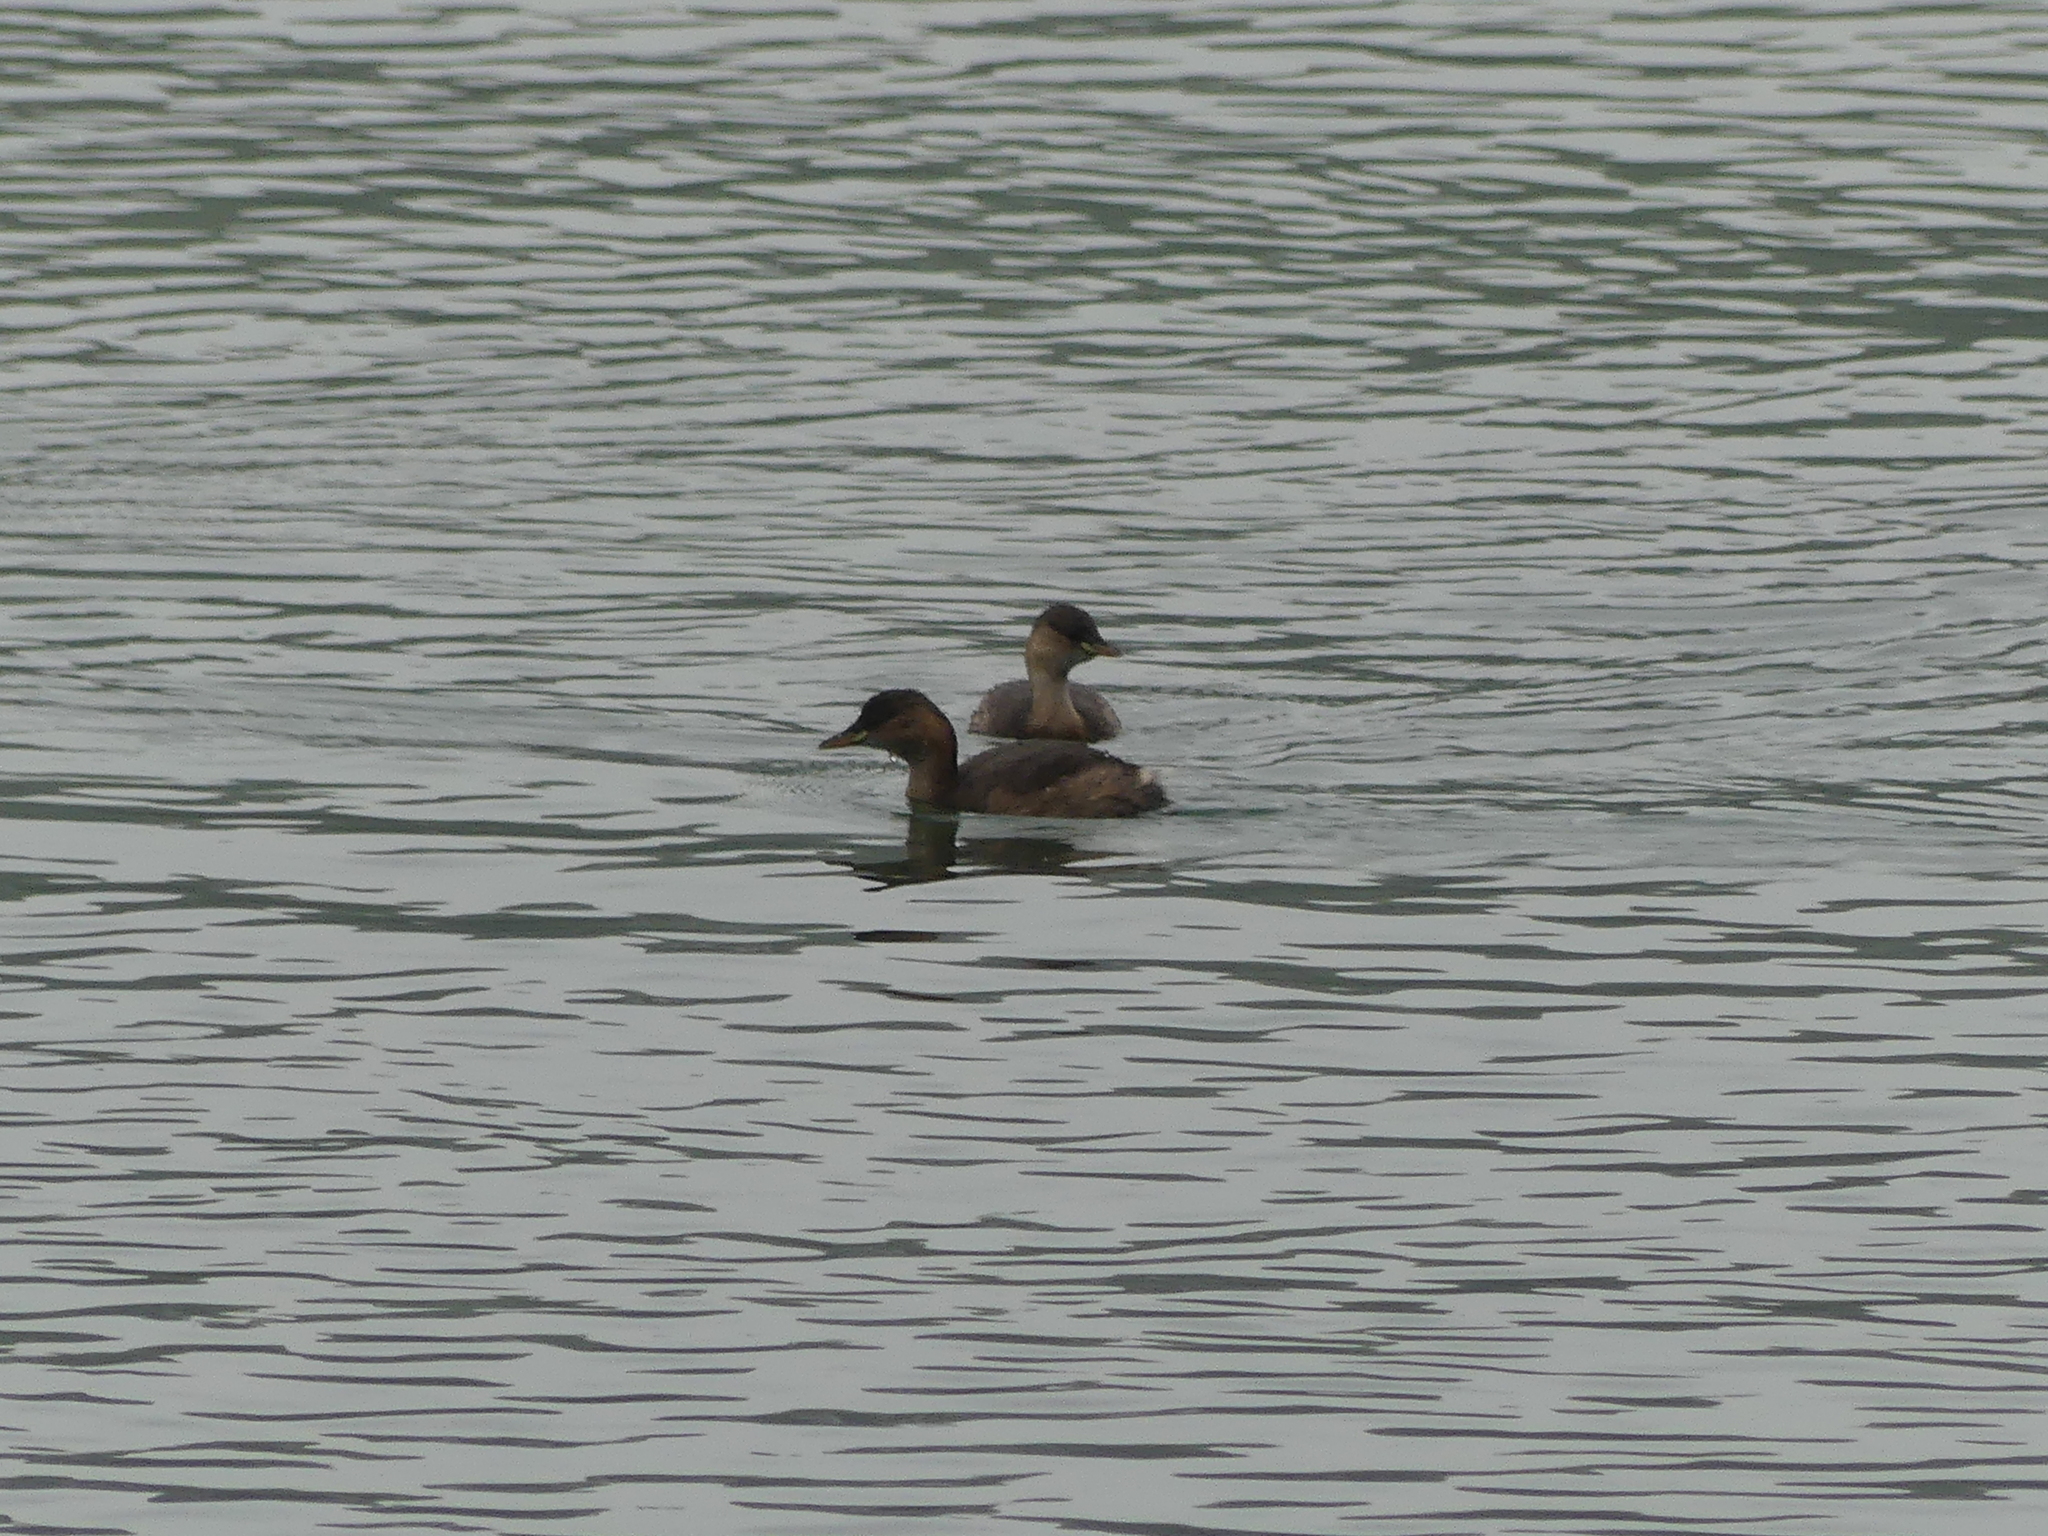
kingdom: Animalia
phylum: Chordata
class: Aves
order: Podicipediformes
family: Podicipedidae
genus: Tachybaptus
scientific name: Tachybaptus ruficollis
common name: Little grebe
